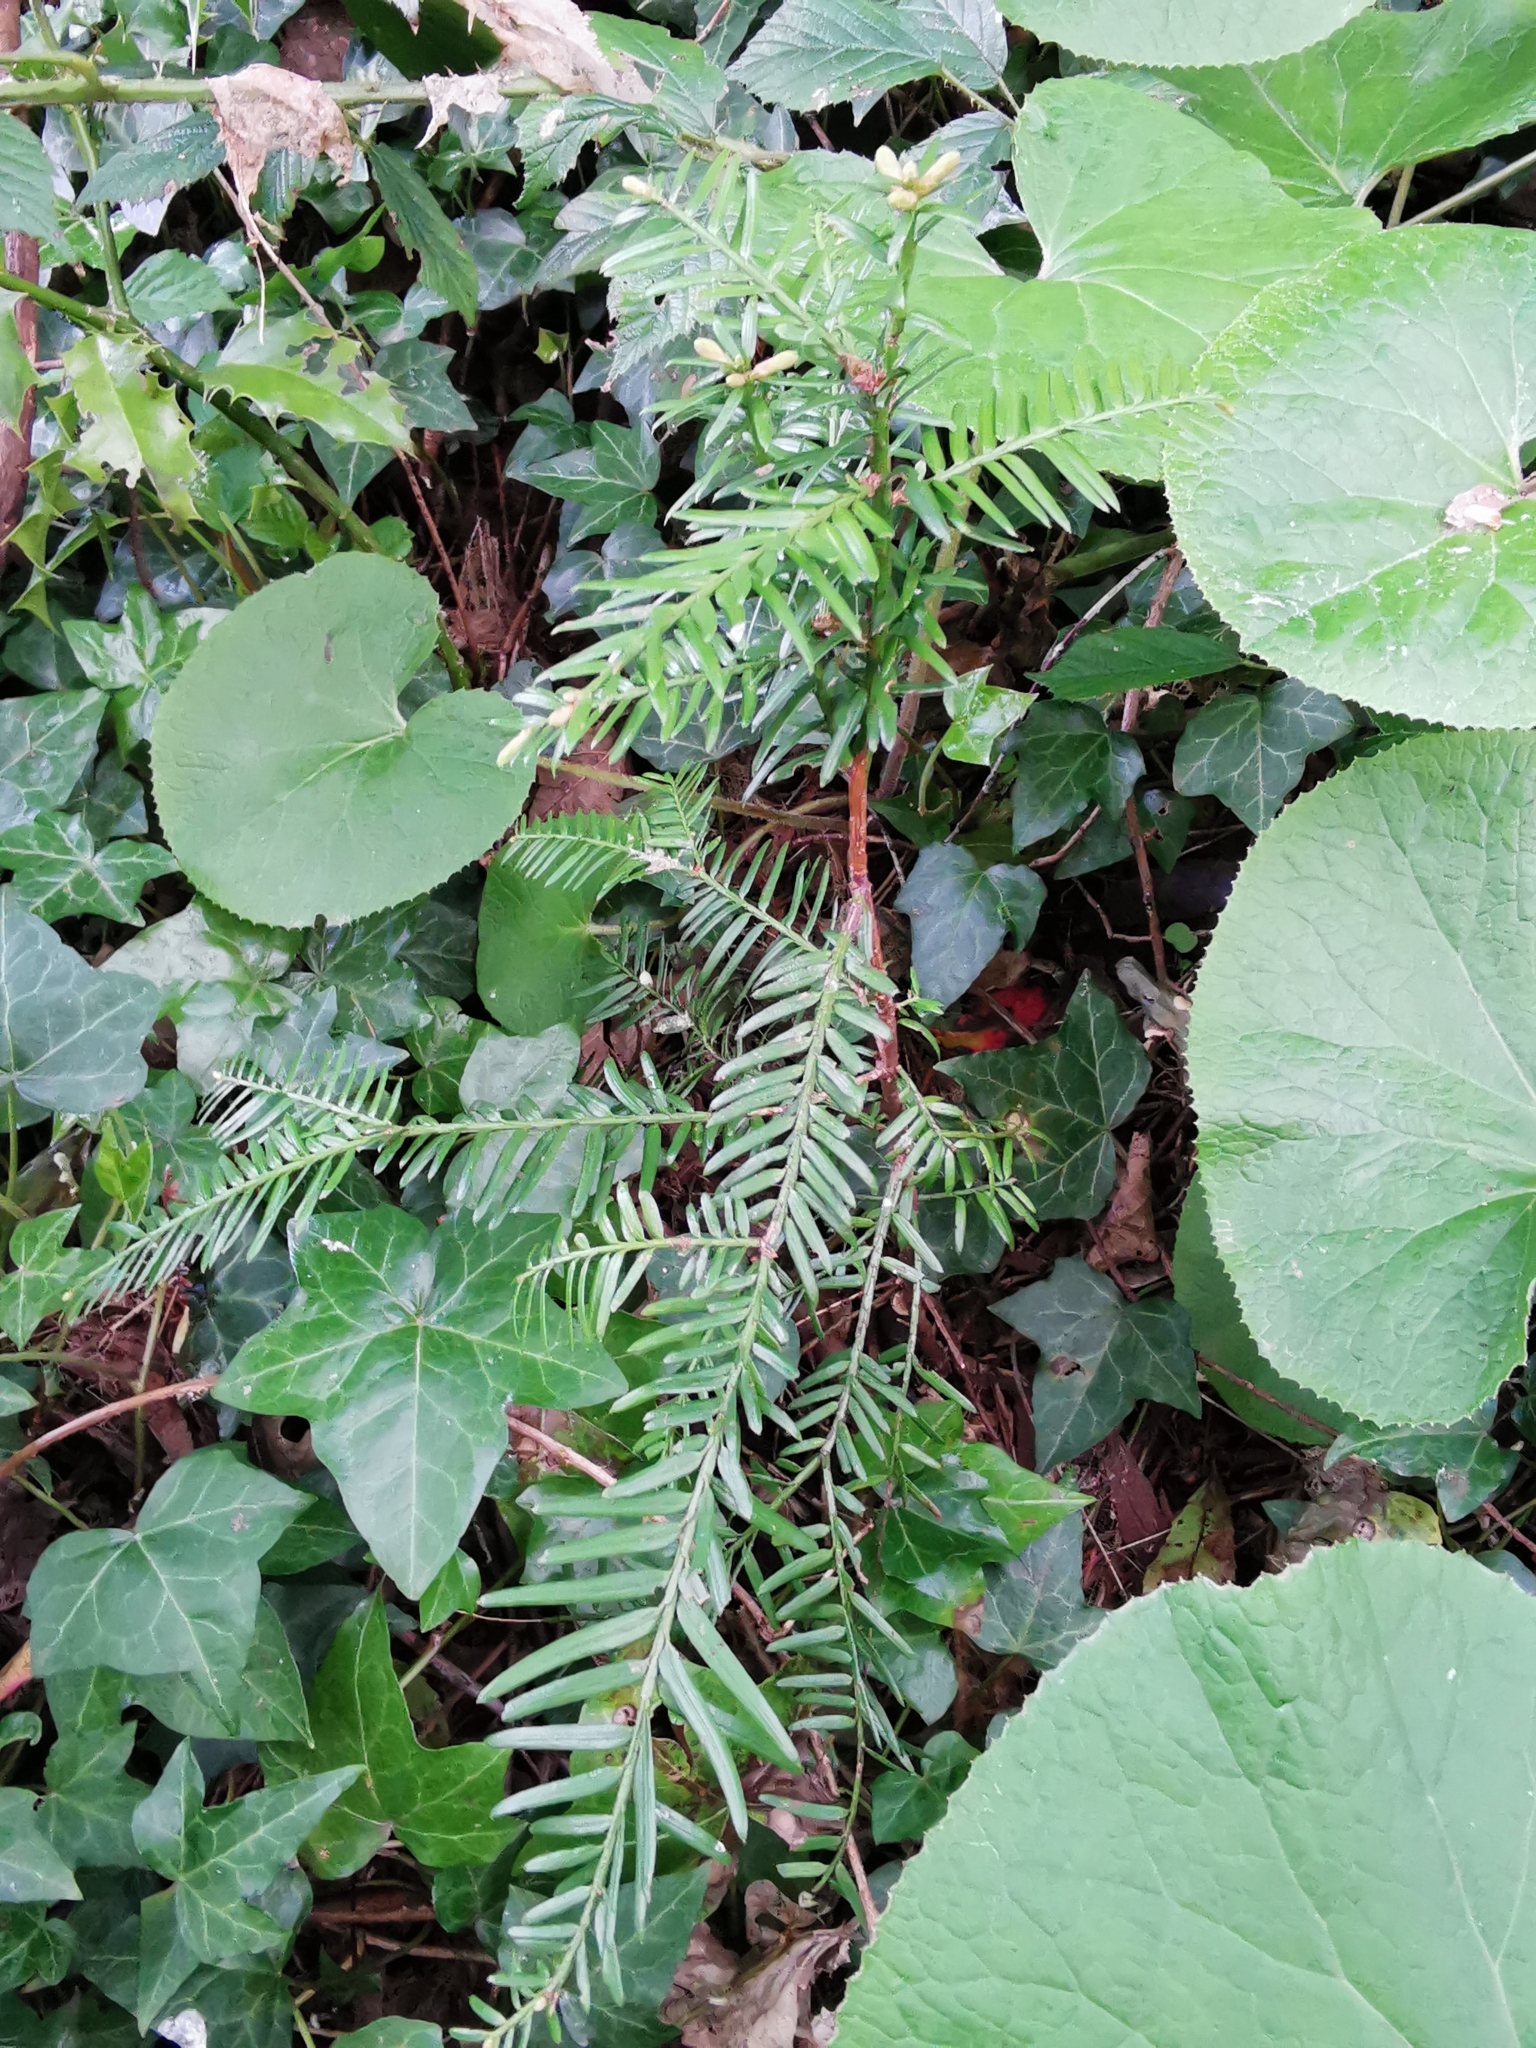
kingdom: Plantae
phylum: Tracheophyta
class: Pinopsida
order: Pinales
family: Taxaceae
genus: Taxus
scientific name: Taxus baccata
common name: Yew
